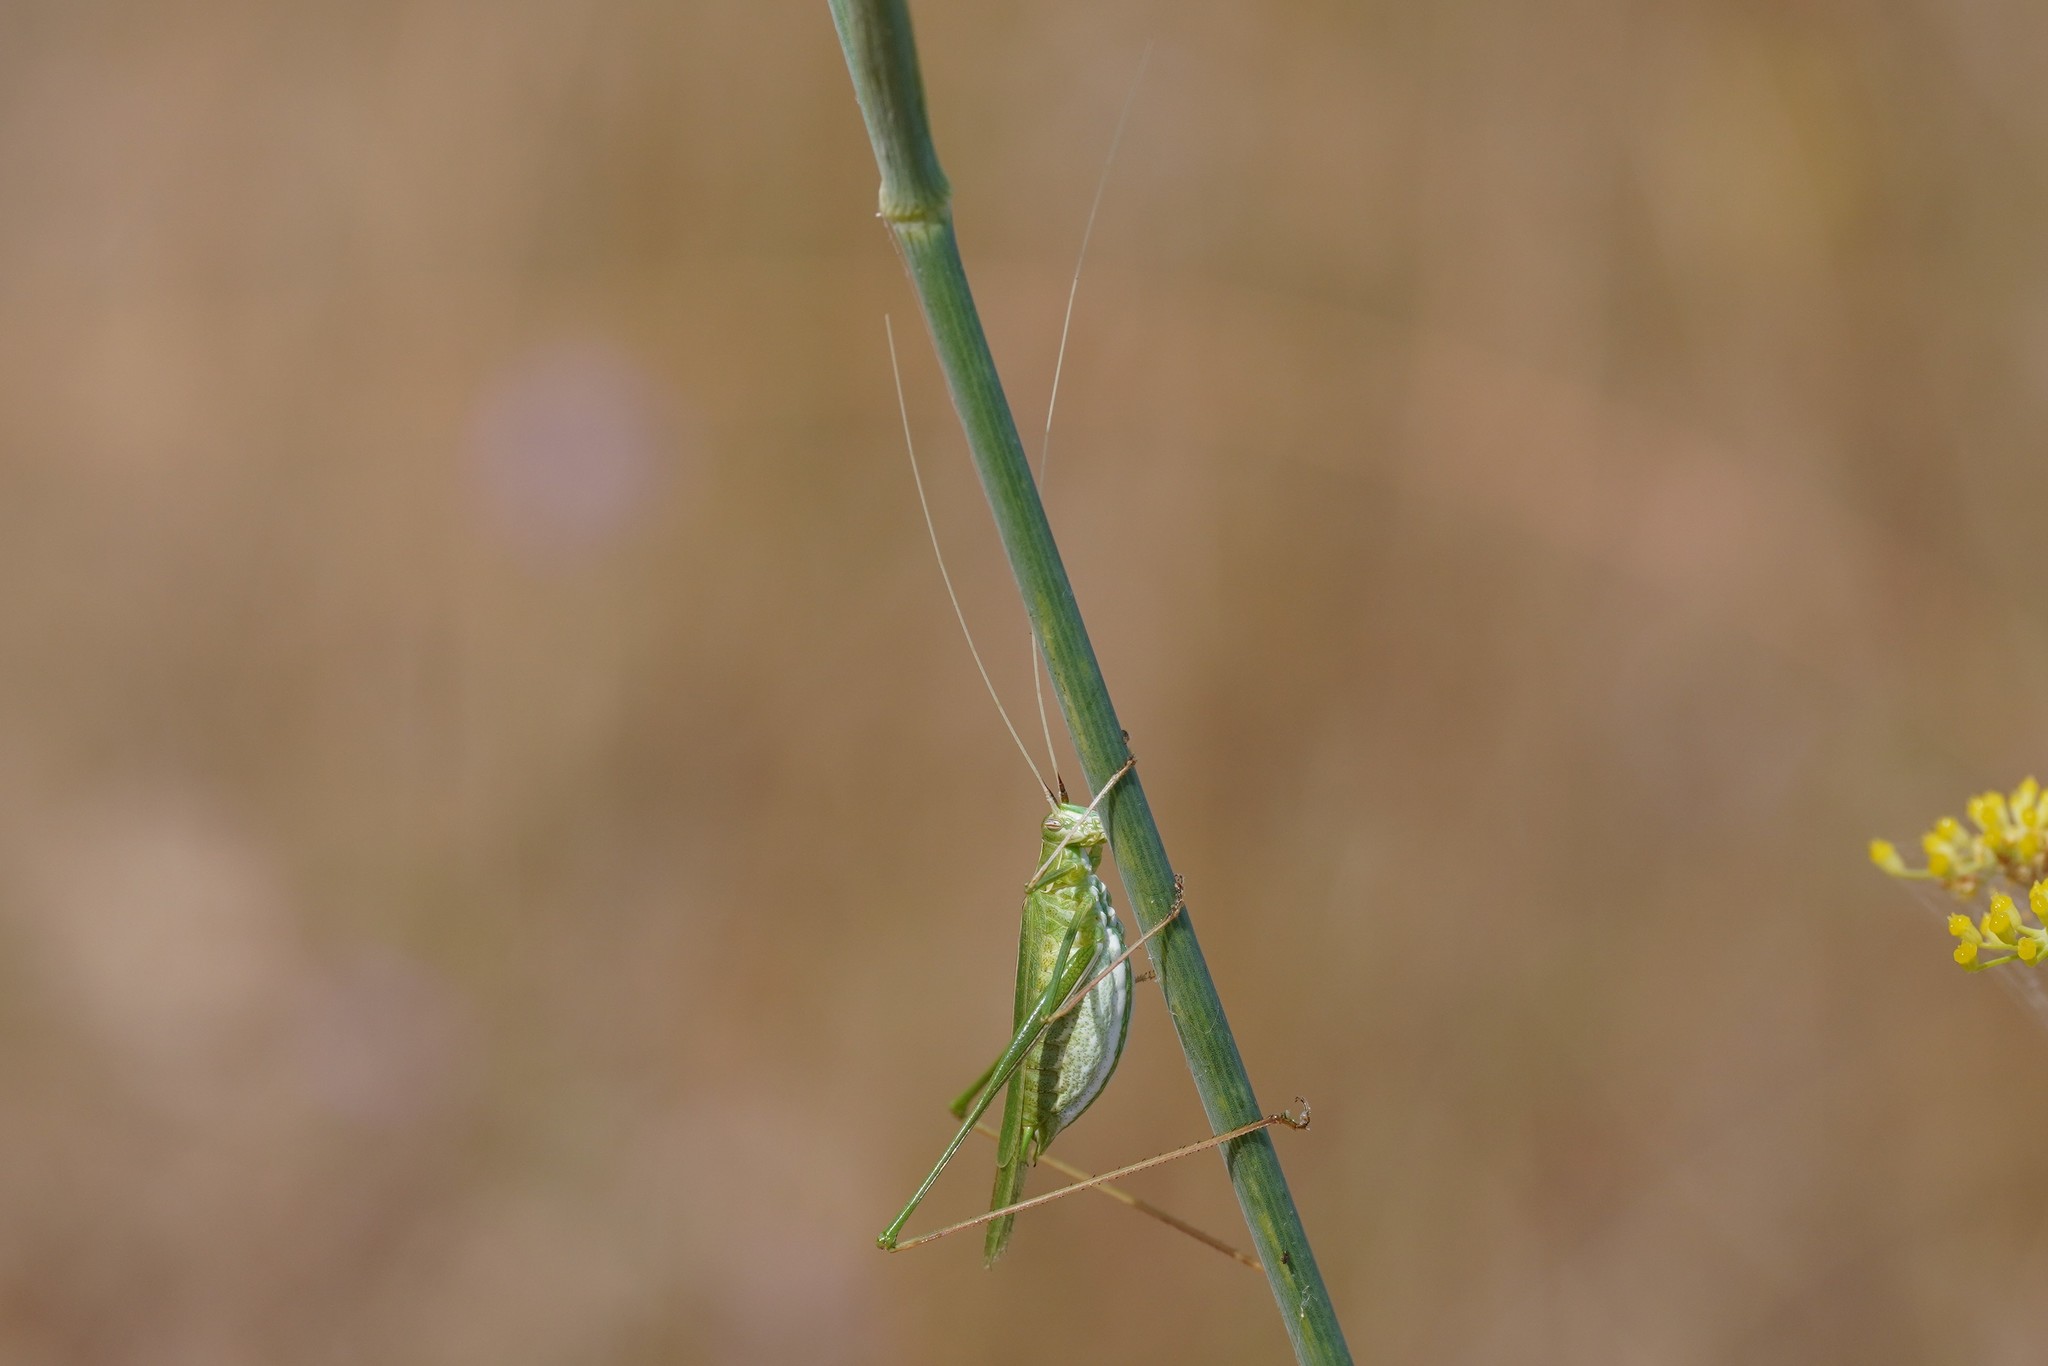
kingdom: Animalia
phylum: Arthropoda
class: Insecta
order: Orthoptera
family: Tettigoniidae
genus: Tylopsis
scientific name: Tylopsis lilifolia
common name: Lily bush-cricket
